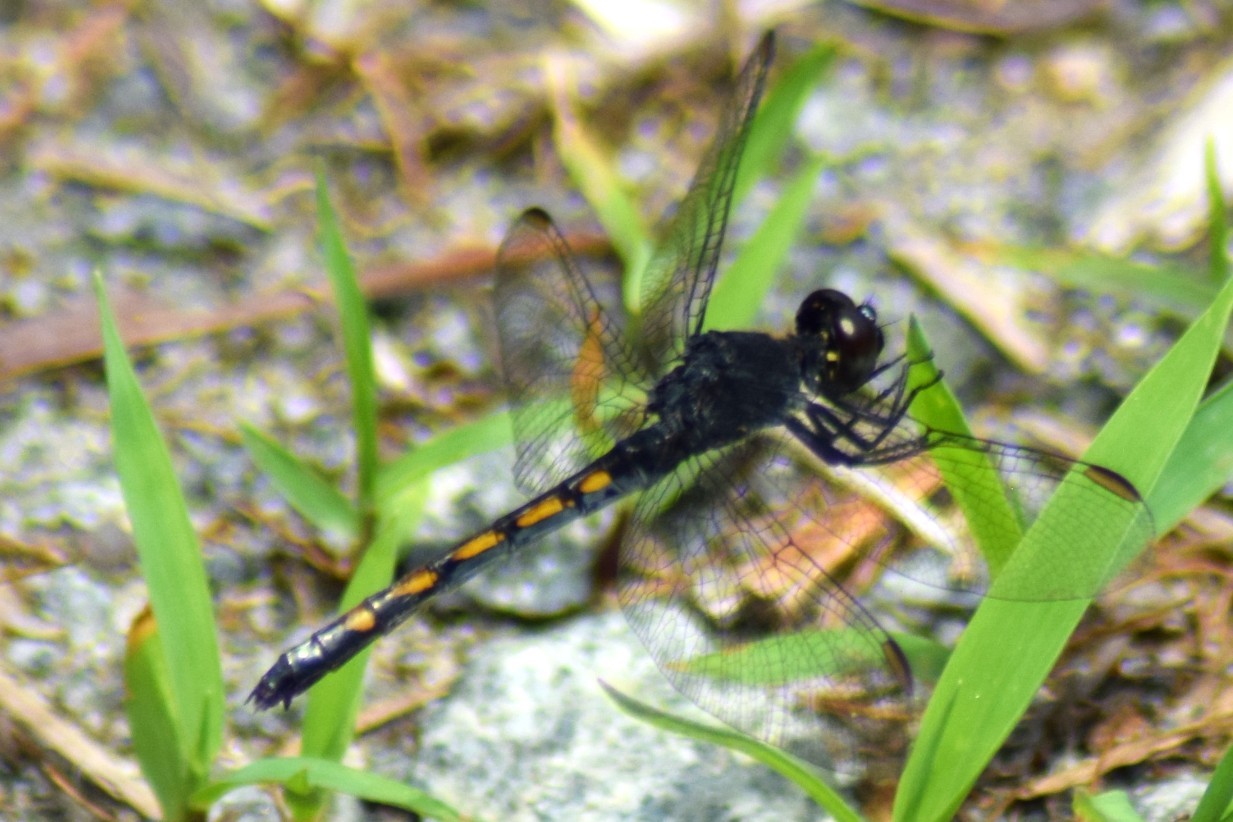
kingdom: Animalia
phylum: Arthropoda
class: Insecta
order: Odonata
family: Libellulidae
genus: Erythrodiplax
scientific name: Erythrodiplax berenice
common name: Seaside dragonlet
